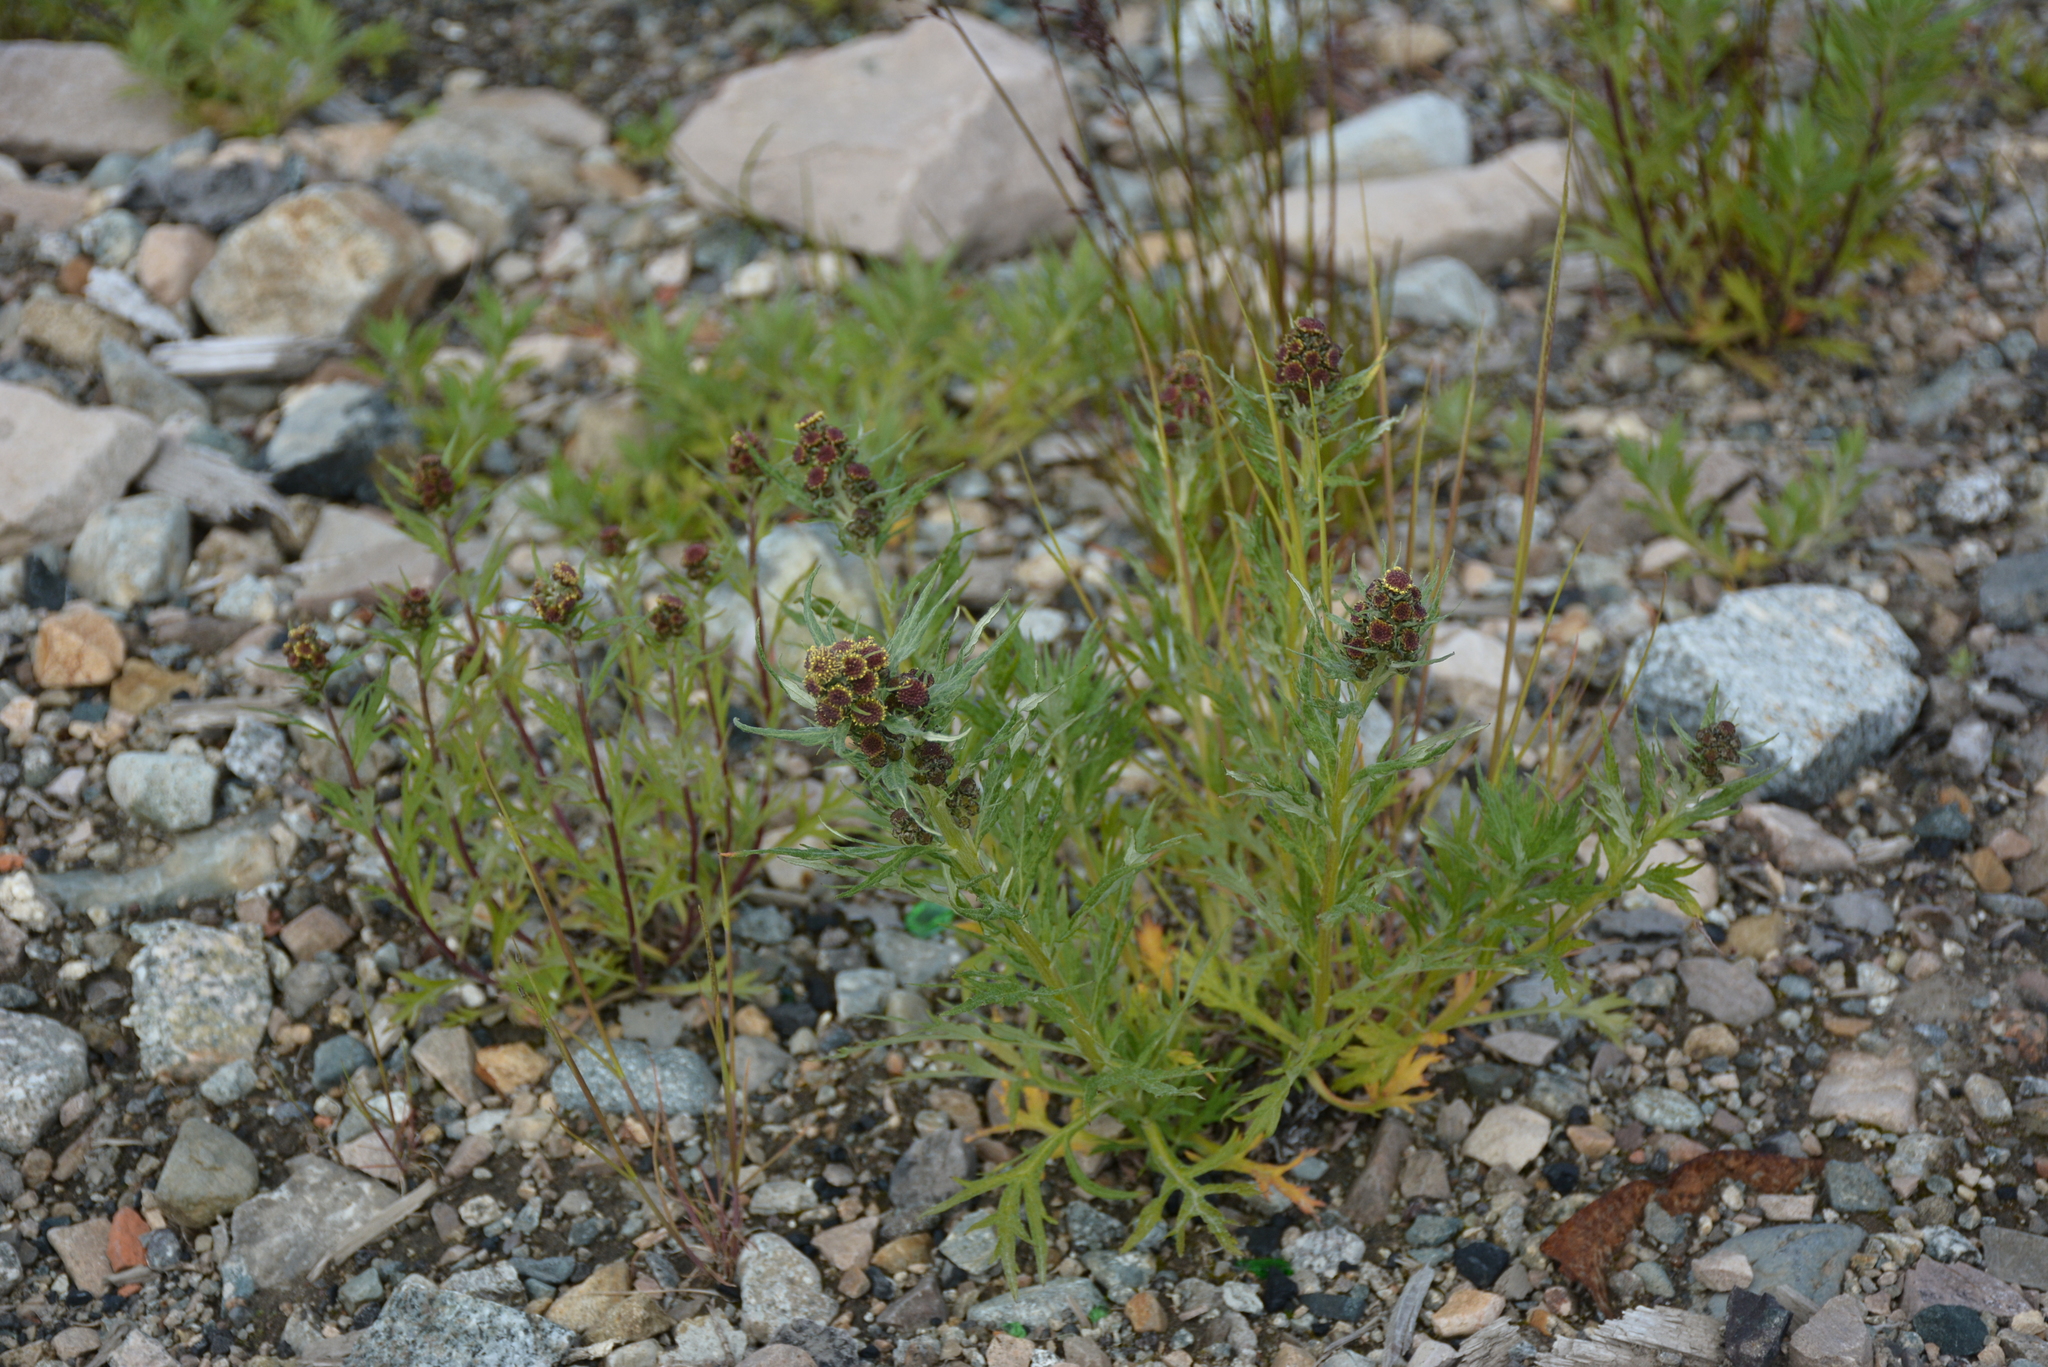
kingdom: Plantae
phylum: Tracheophyta
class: Magnoliopsida
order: Asterales
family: Asteraceae
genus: Artemisia
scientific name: Artemisia tilesii
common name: Aleutian mugwort
